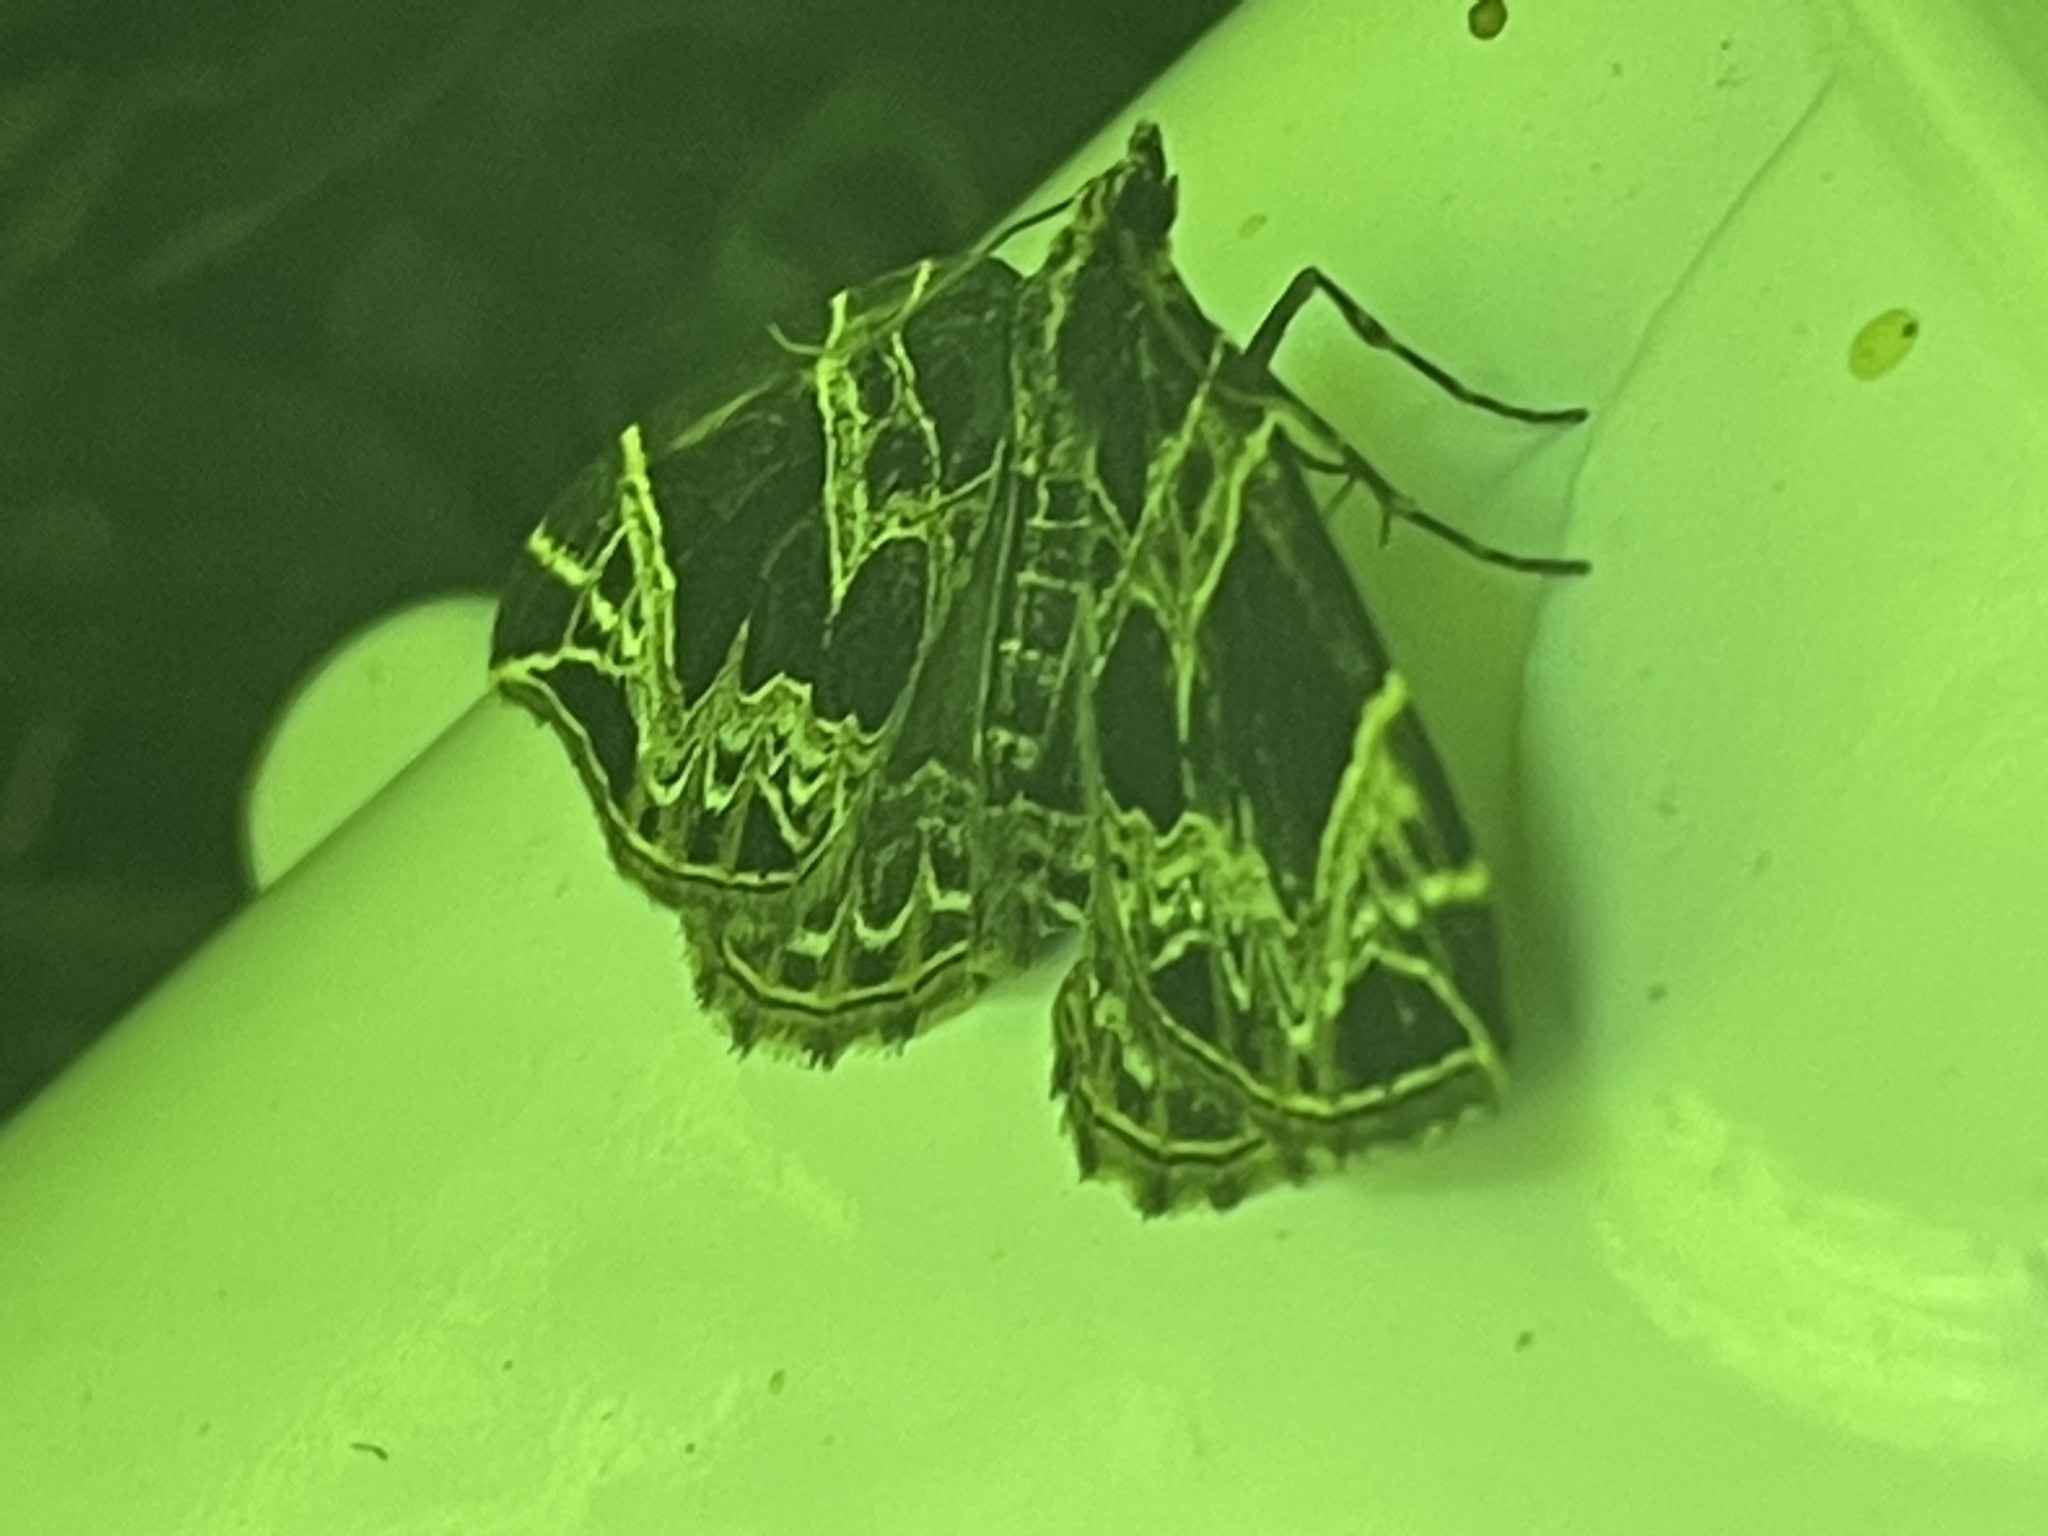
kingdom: Animalia
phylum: Arthropoda
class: Insecta
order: Lepidoptera
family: Geometridae
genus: Ecliptopera
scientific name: Ecliptopera atricolorata
